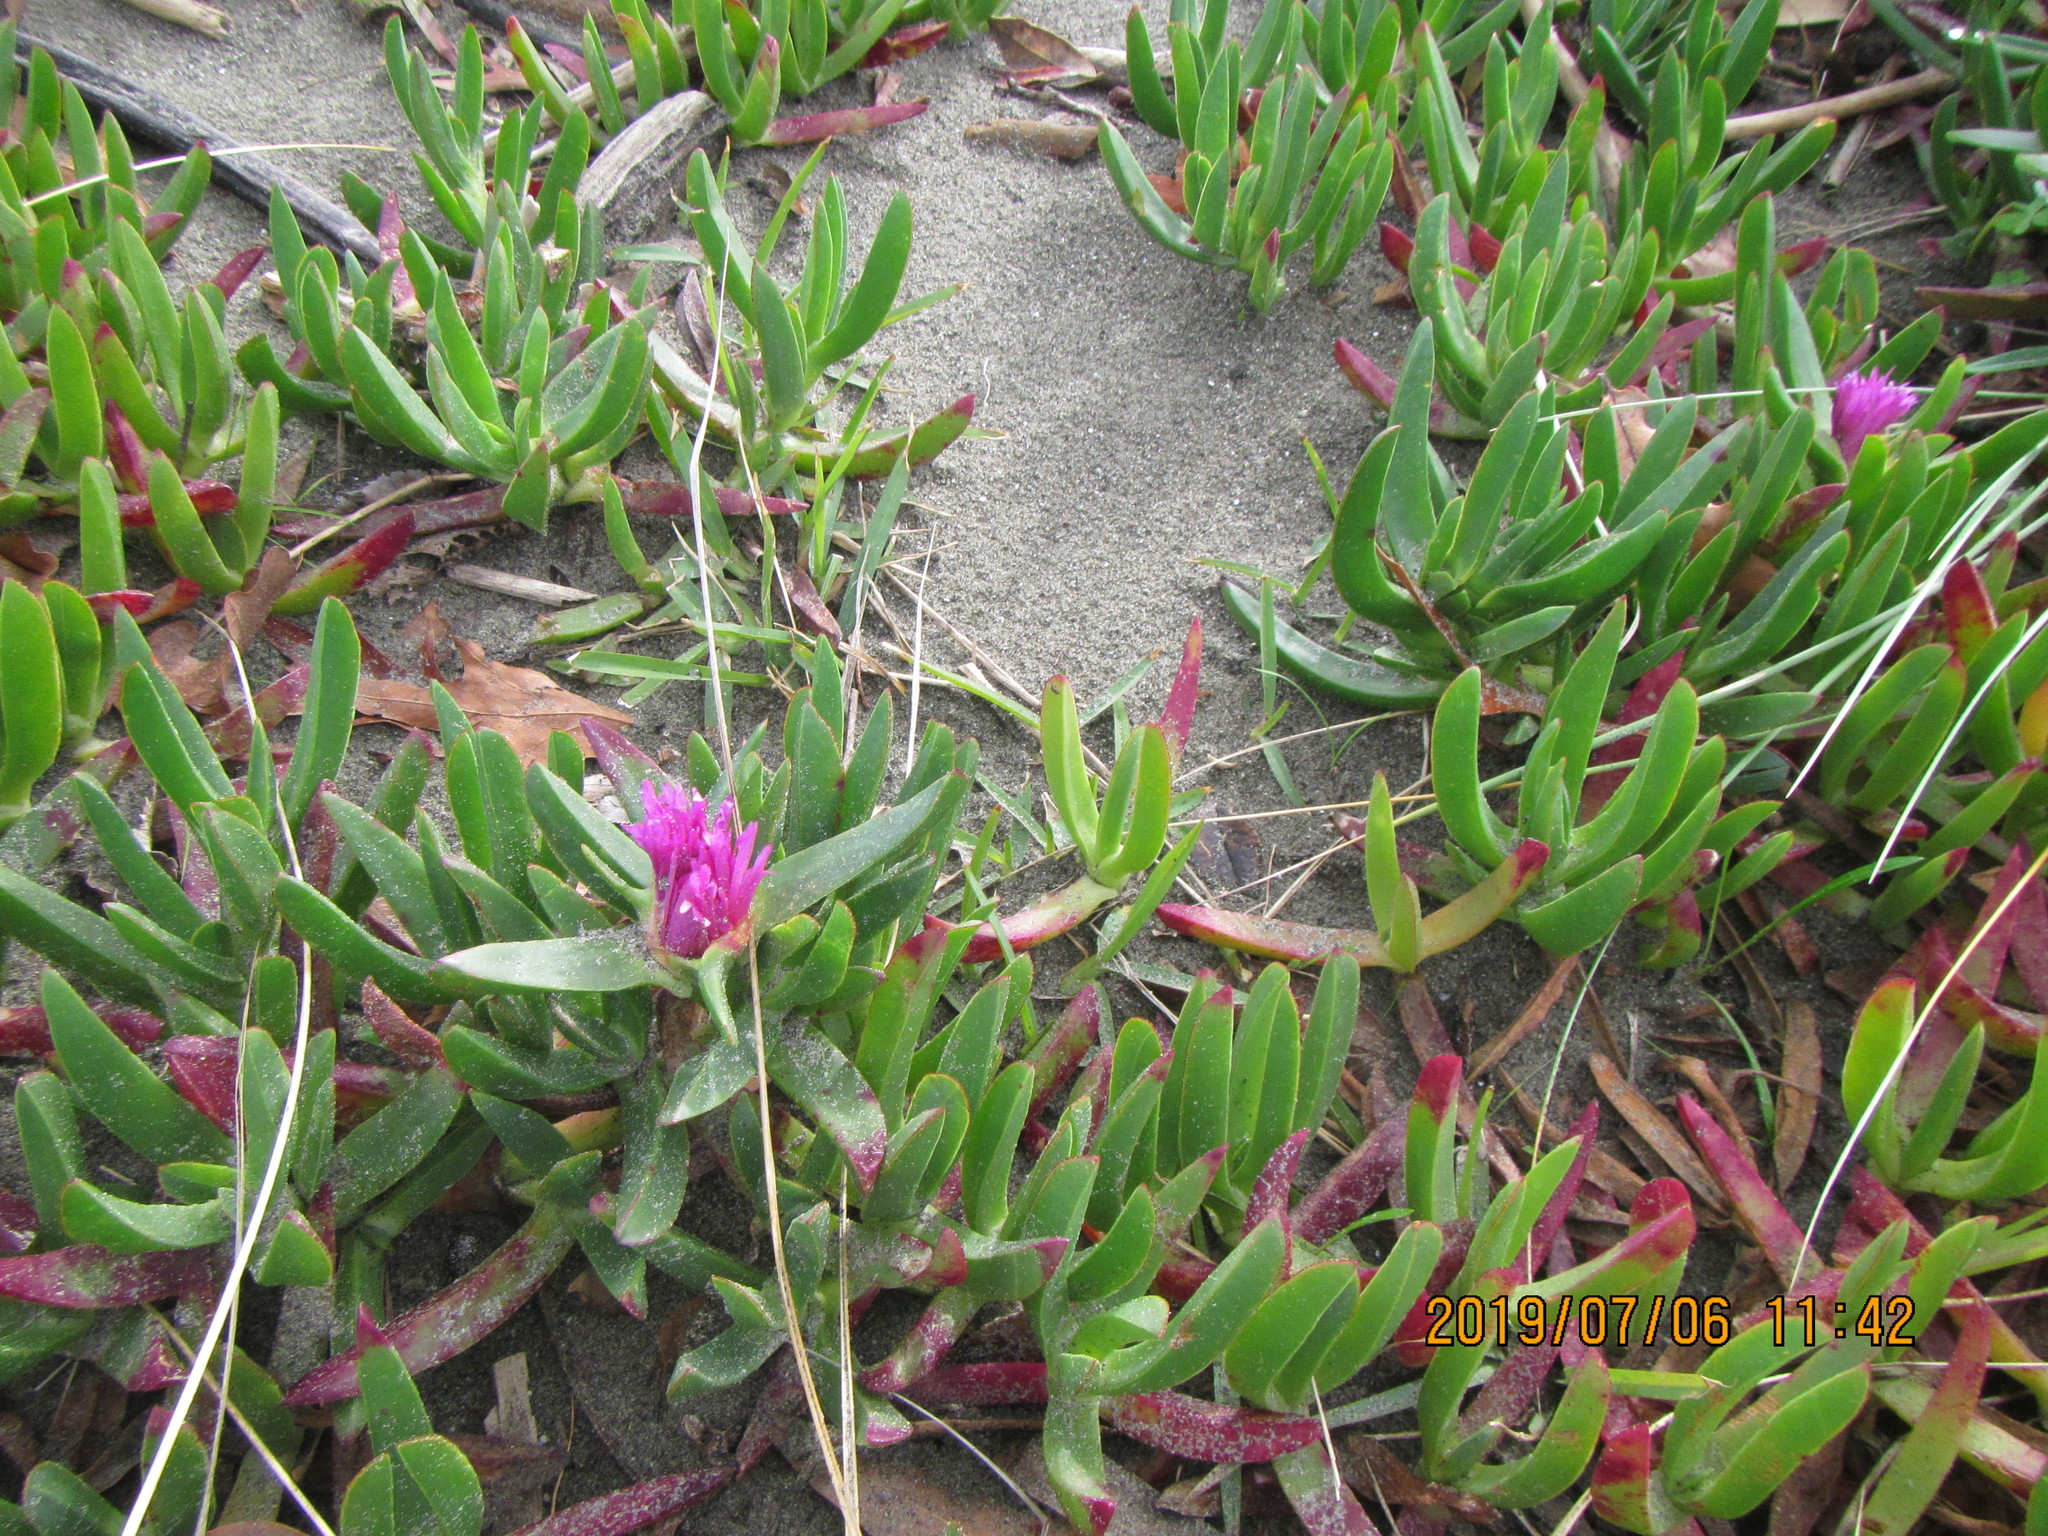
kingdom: Plantae
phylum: Tracheophyta
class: Magnoliopsida
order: Caryophyllales
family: Aizoaceae
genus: Carpobrotus
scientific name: Carpobrotus chilensis
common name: Sea fig
